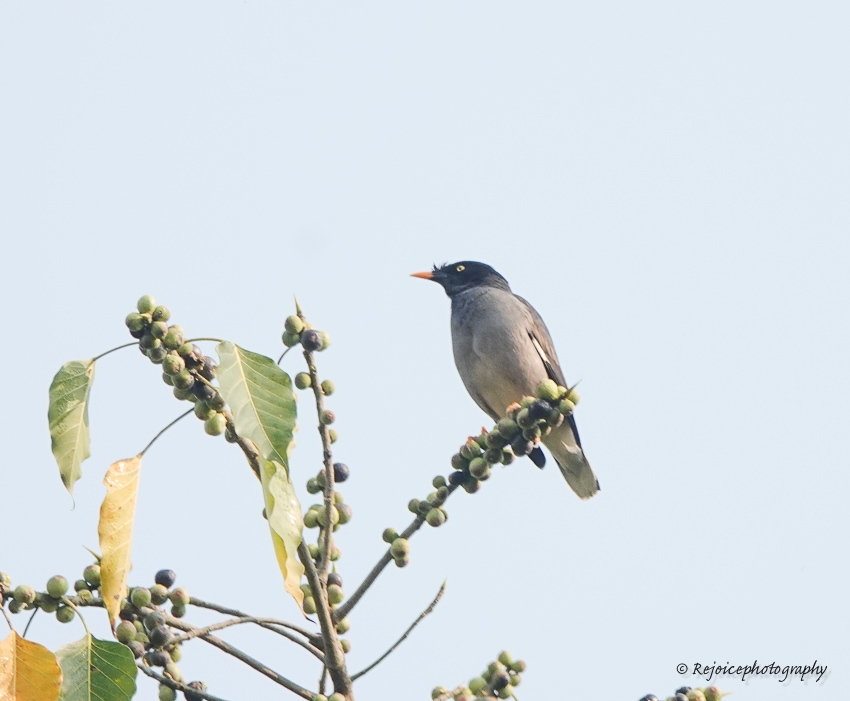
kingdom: Animalia
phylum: Chordata
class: Aves
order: Passeriformes
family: Sturnidae
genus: Acridotheres
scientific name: Acridotheres fuscus
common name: Jungle myna
